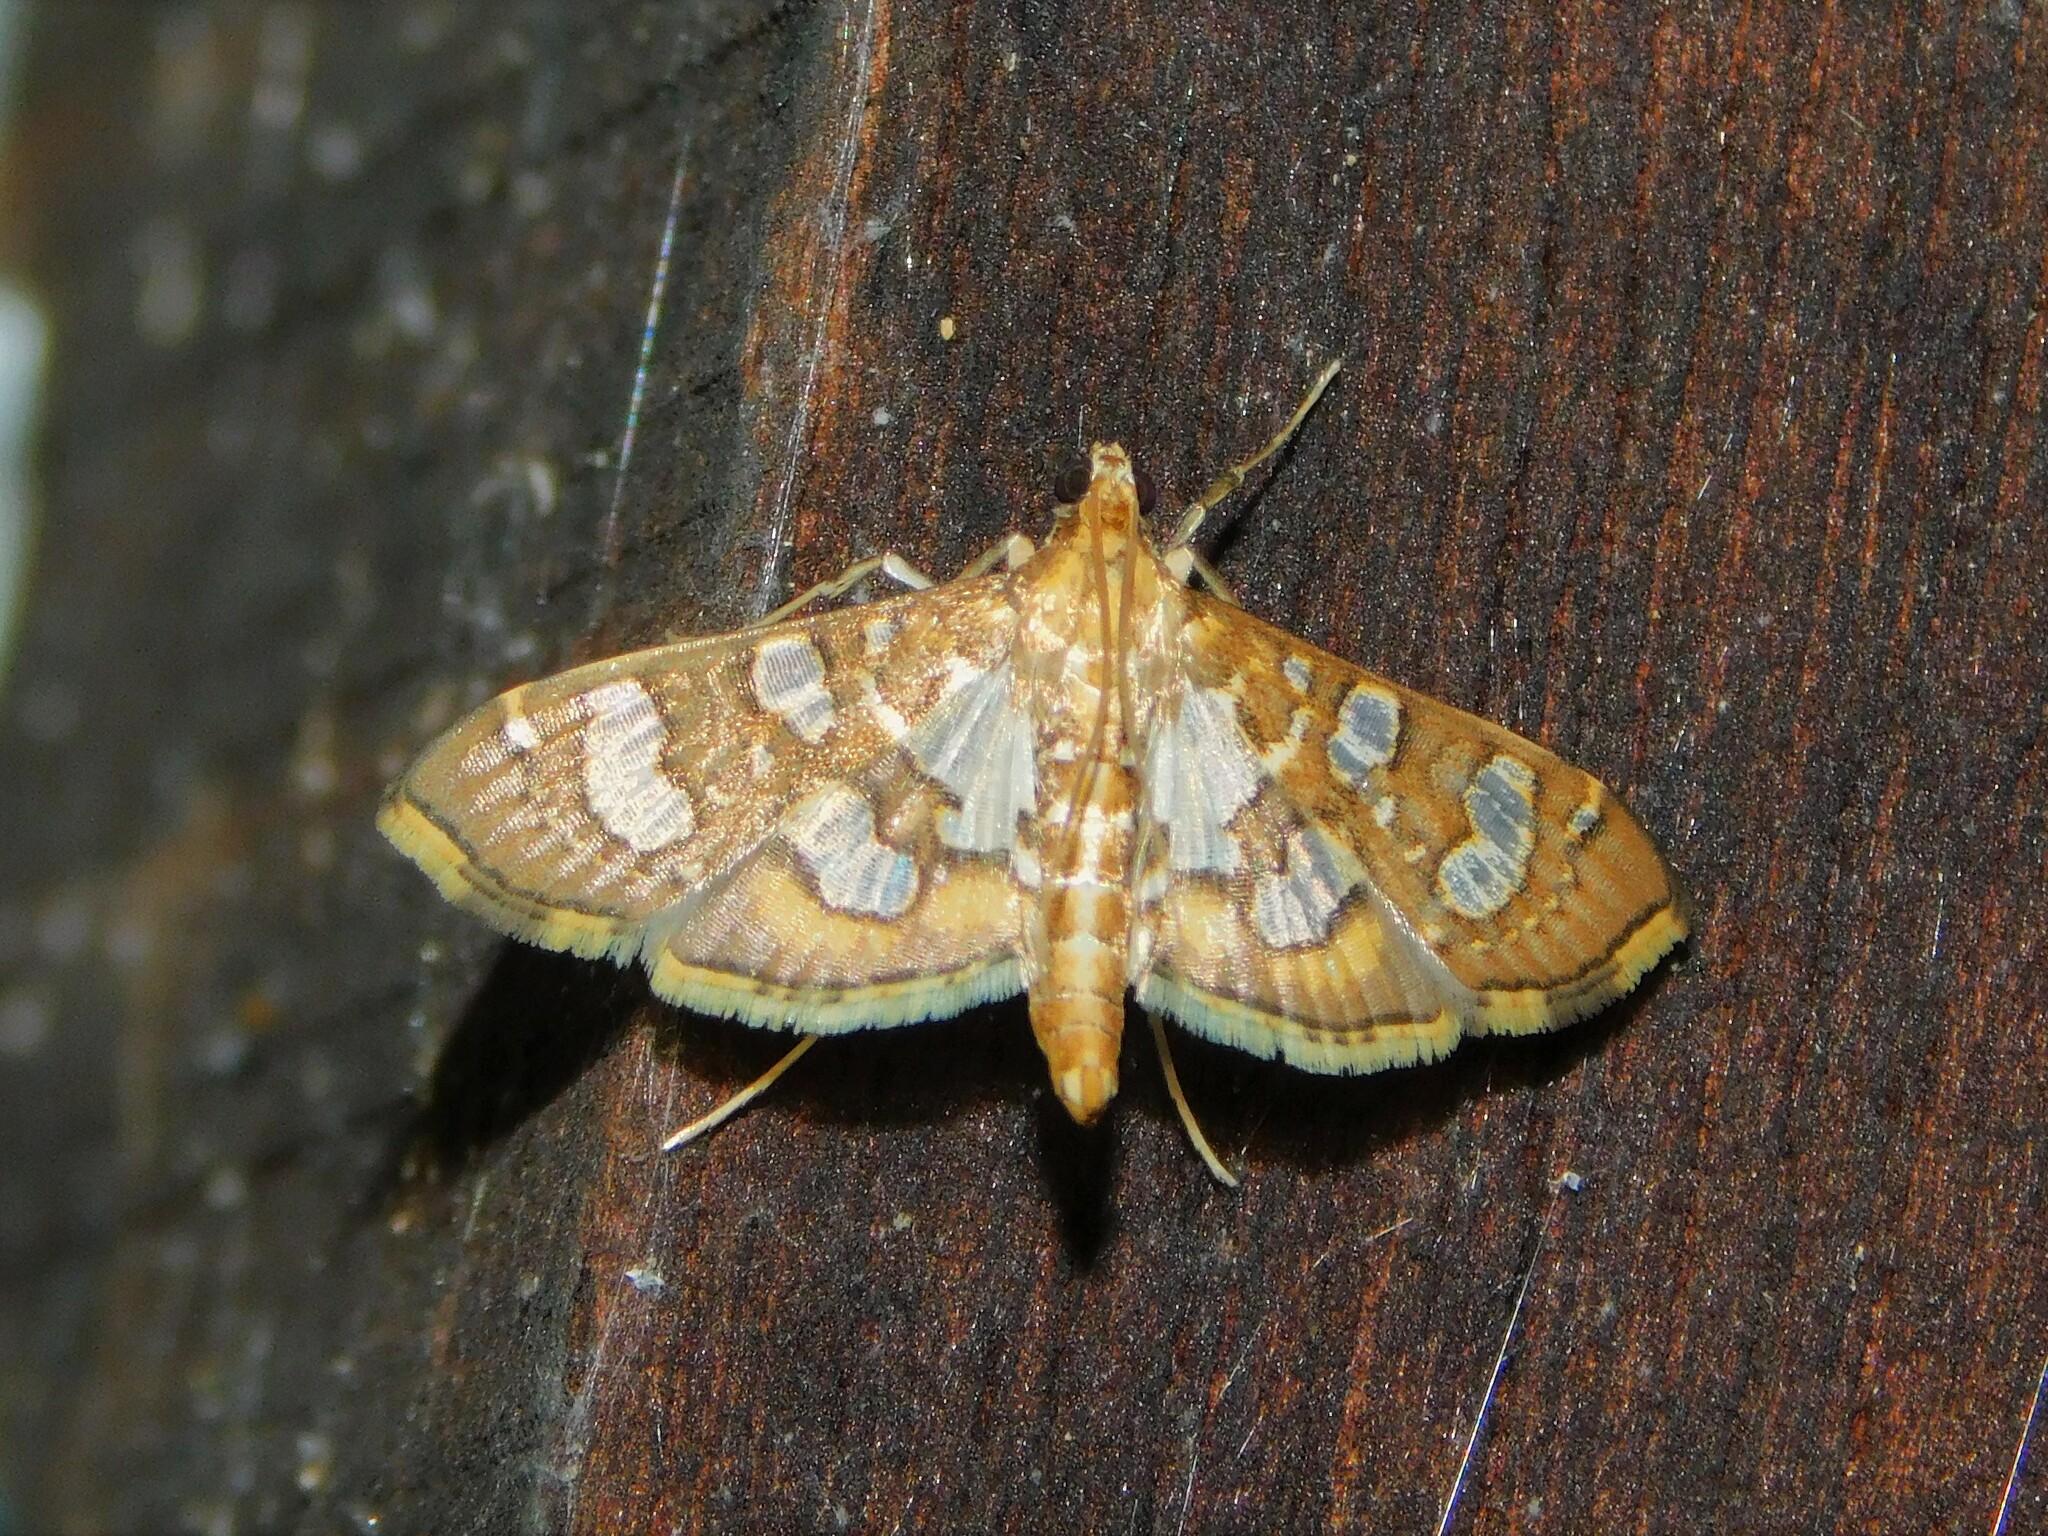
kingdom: Animalia
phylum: Arthropoda
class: Insecta
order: Lepidoptera
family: Crambidae
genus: Nausinoe
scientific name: Nausinoe quadrinalis
